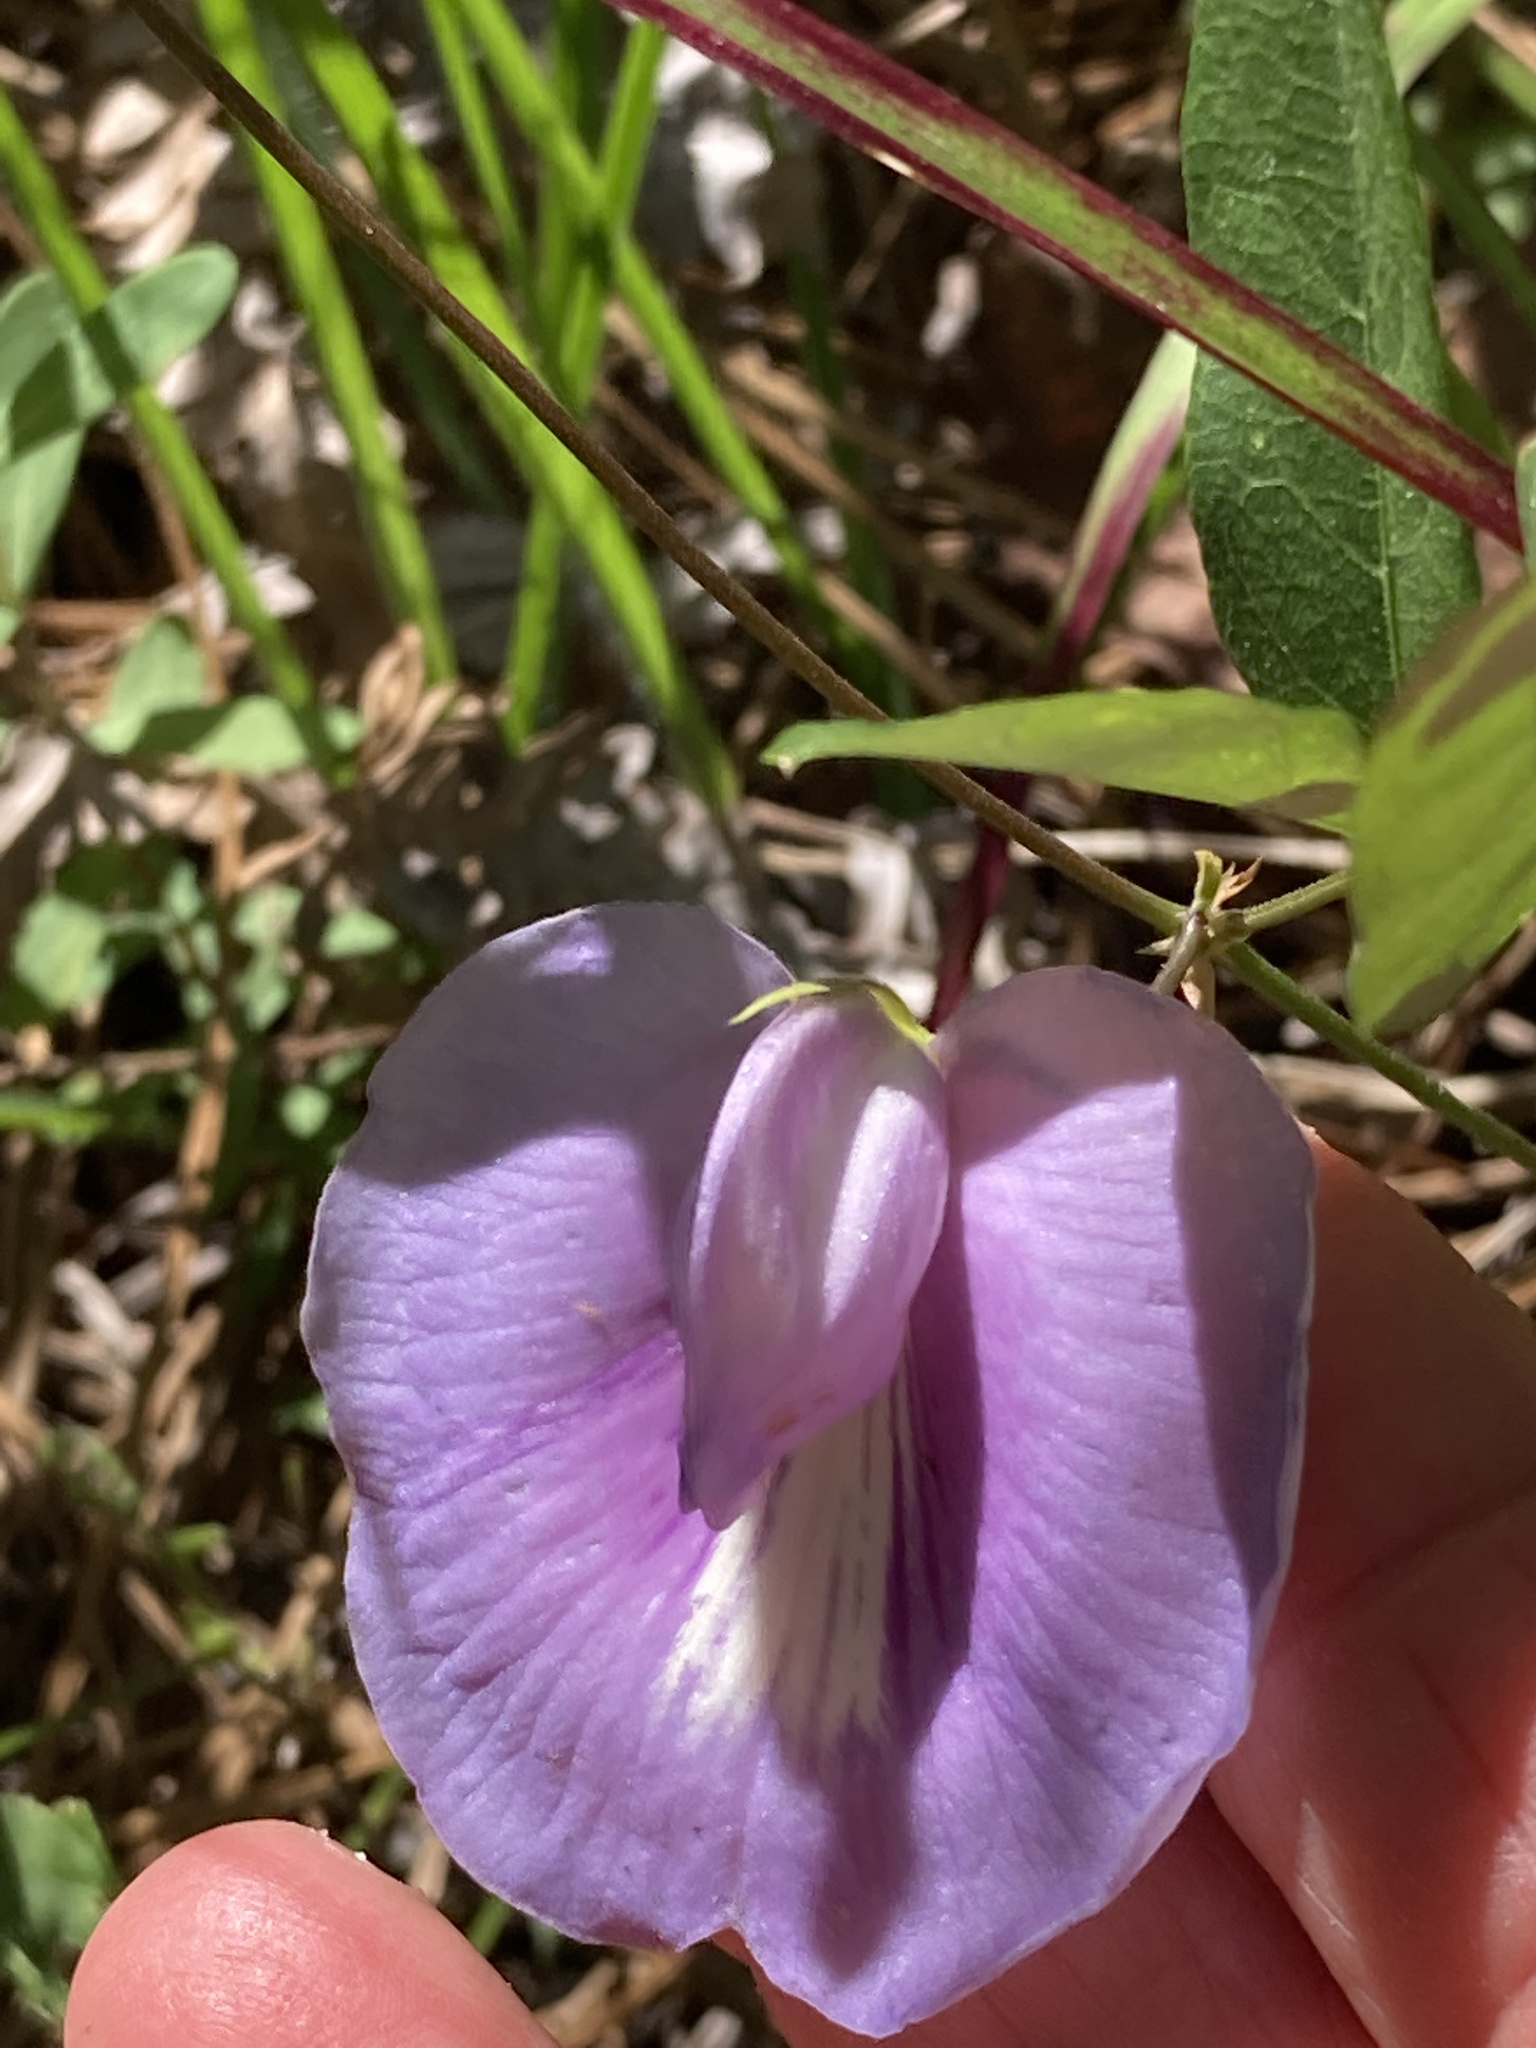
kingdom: Plantae
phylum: Tracheophyta
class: Magnoliopsida
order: Fabales
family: Fabaceae
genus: Centrosema
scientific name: Centrosema virginianum
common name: Butterfly-pea
